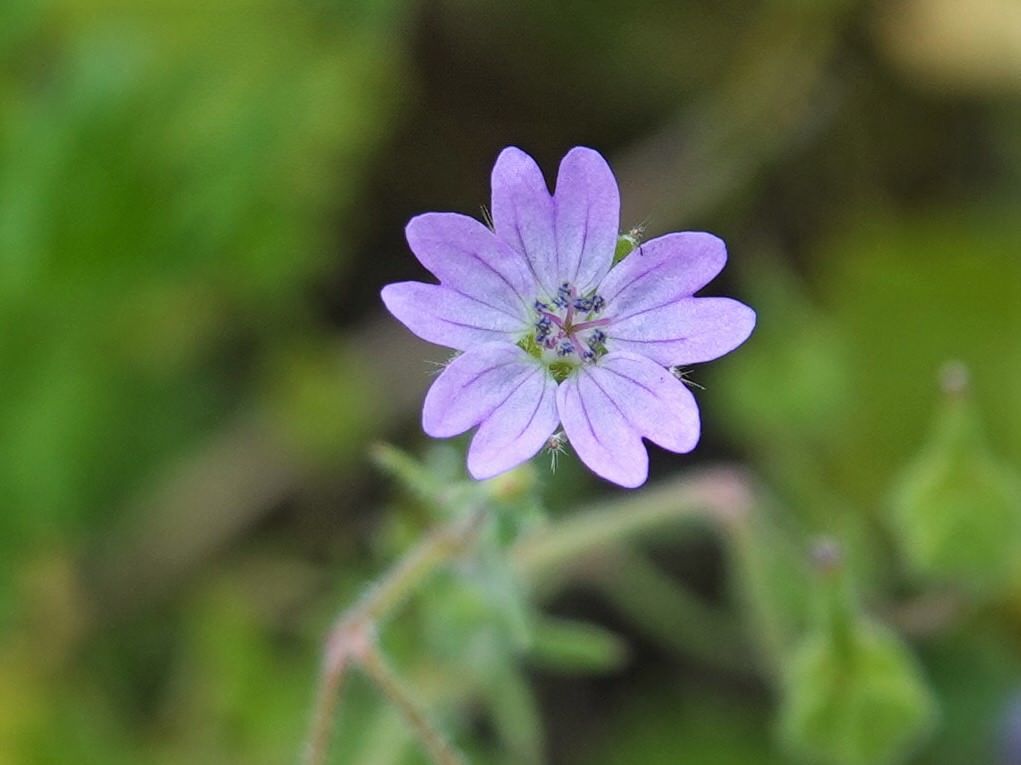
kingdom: Plantae
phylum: Tracheophyta
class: Magnoliopsida
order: Geraniales
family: Geraniaceae
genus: Geranium
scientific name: Geranium molle
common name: Dove's-foot crane's-bill
